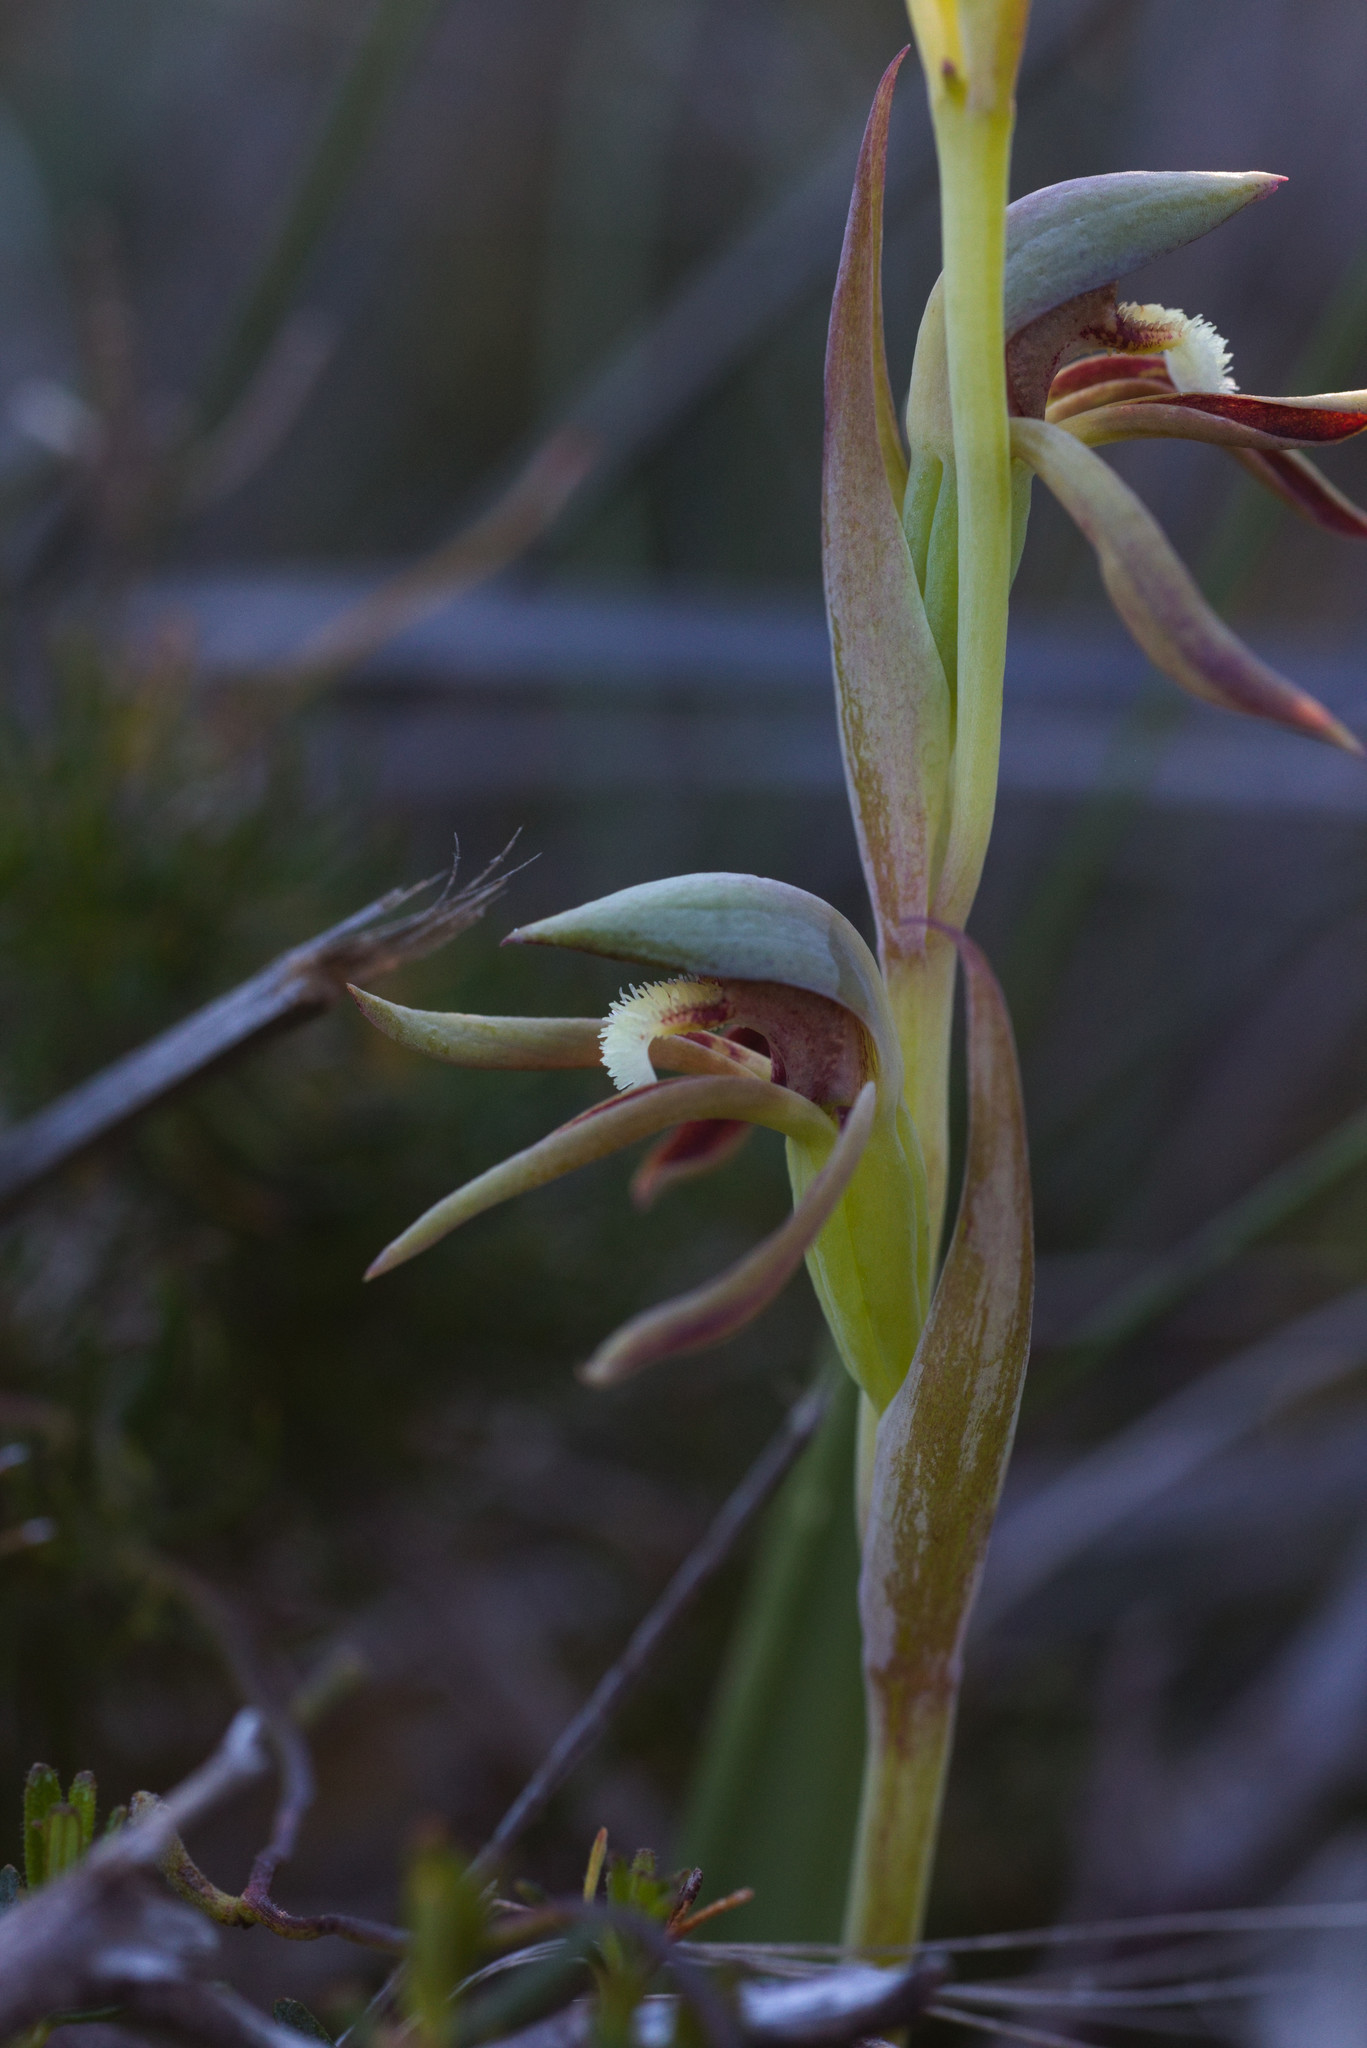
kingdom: Plantae
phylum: Tracheophyta
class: Liliopsida
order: Asparagales
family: Orchidaceae
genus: Lyperanthus
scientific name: Lyperanthus serratus
